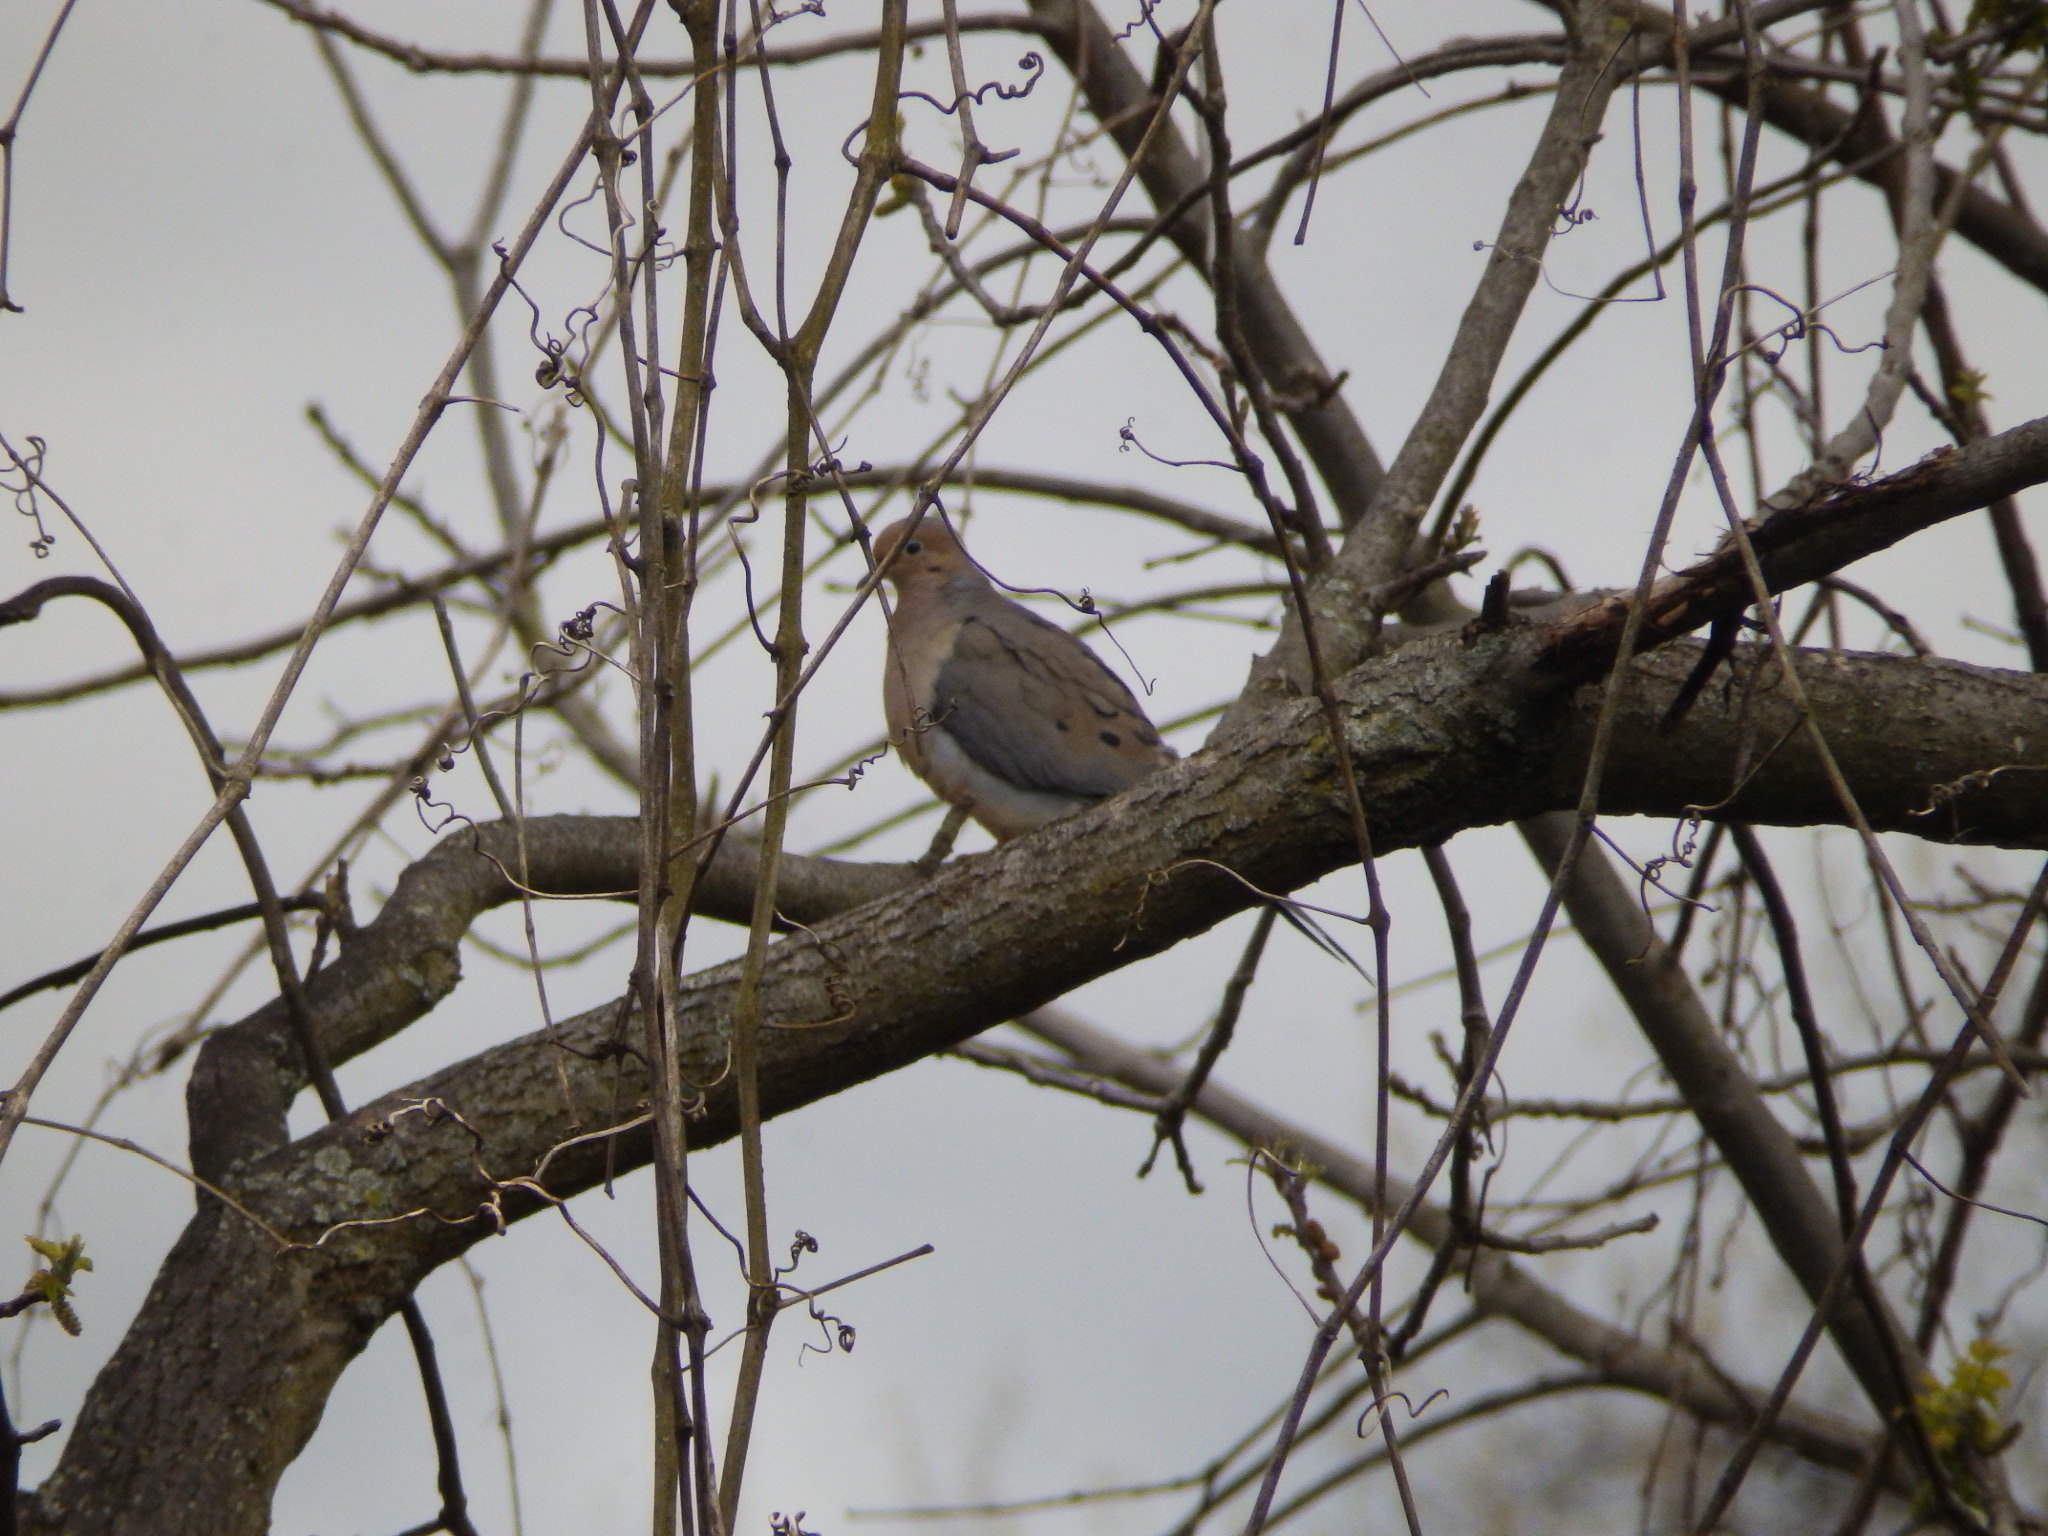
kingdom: Animalia
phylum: Chordata
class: Aves
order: Columbiformes
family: Columbidae
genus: Zenaida
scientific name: Zenaida macroura
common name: Mourning dove
